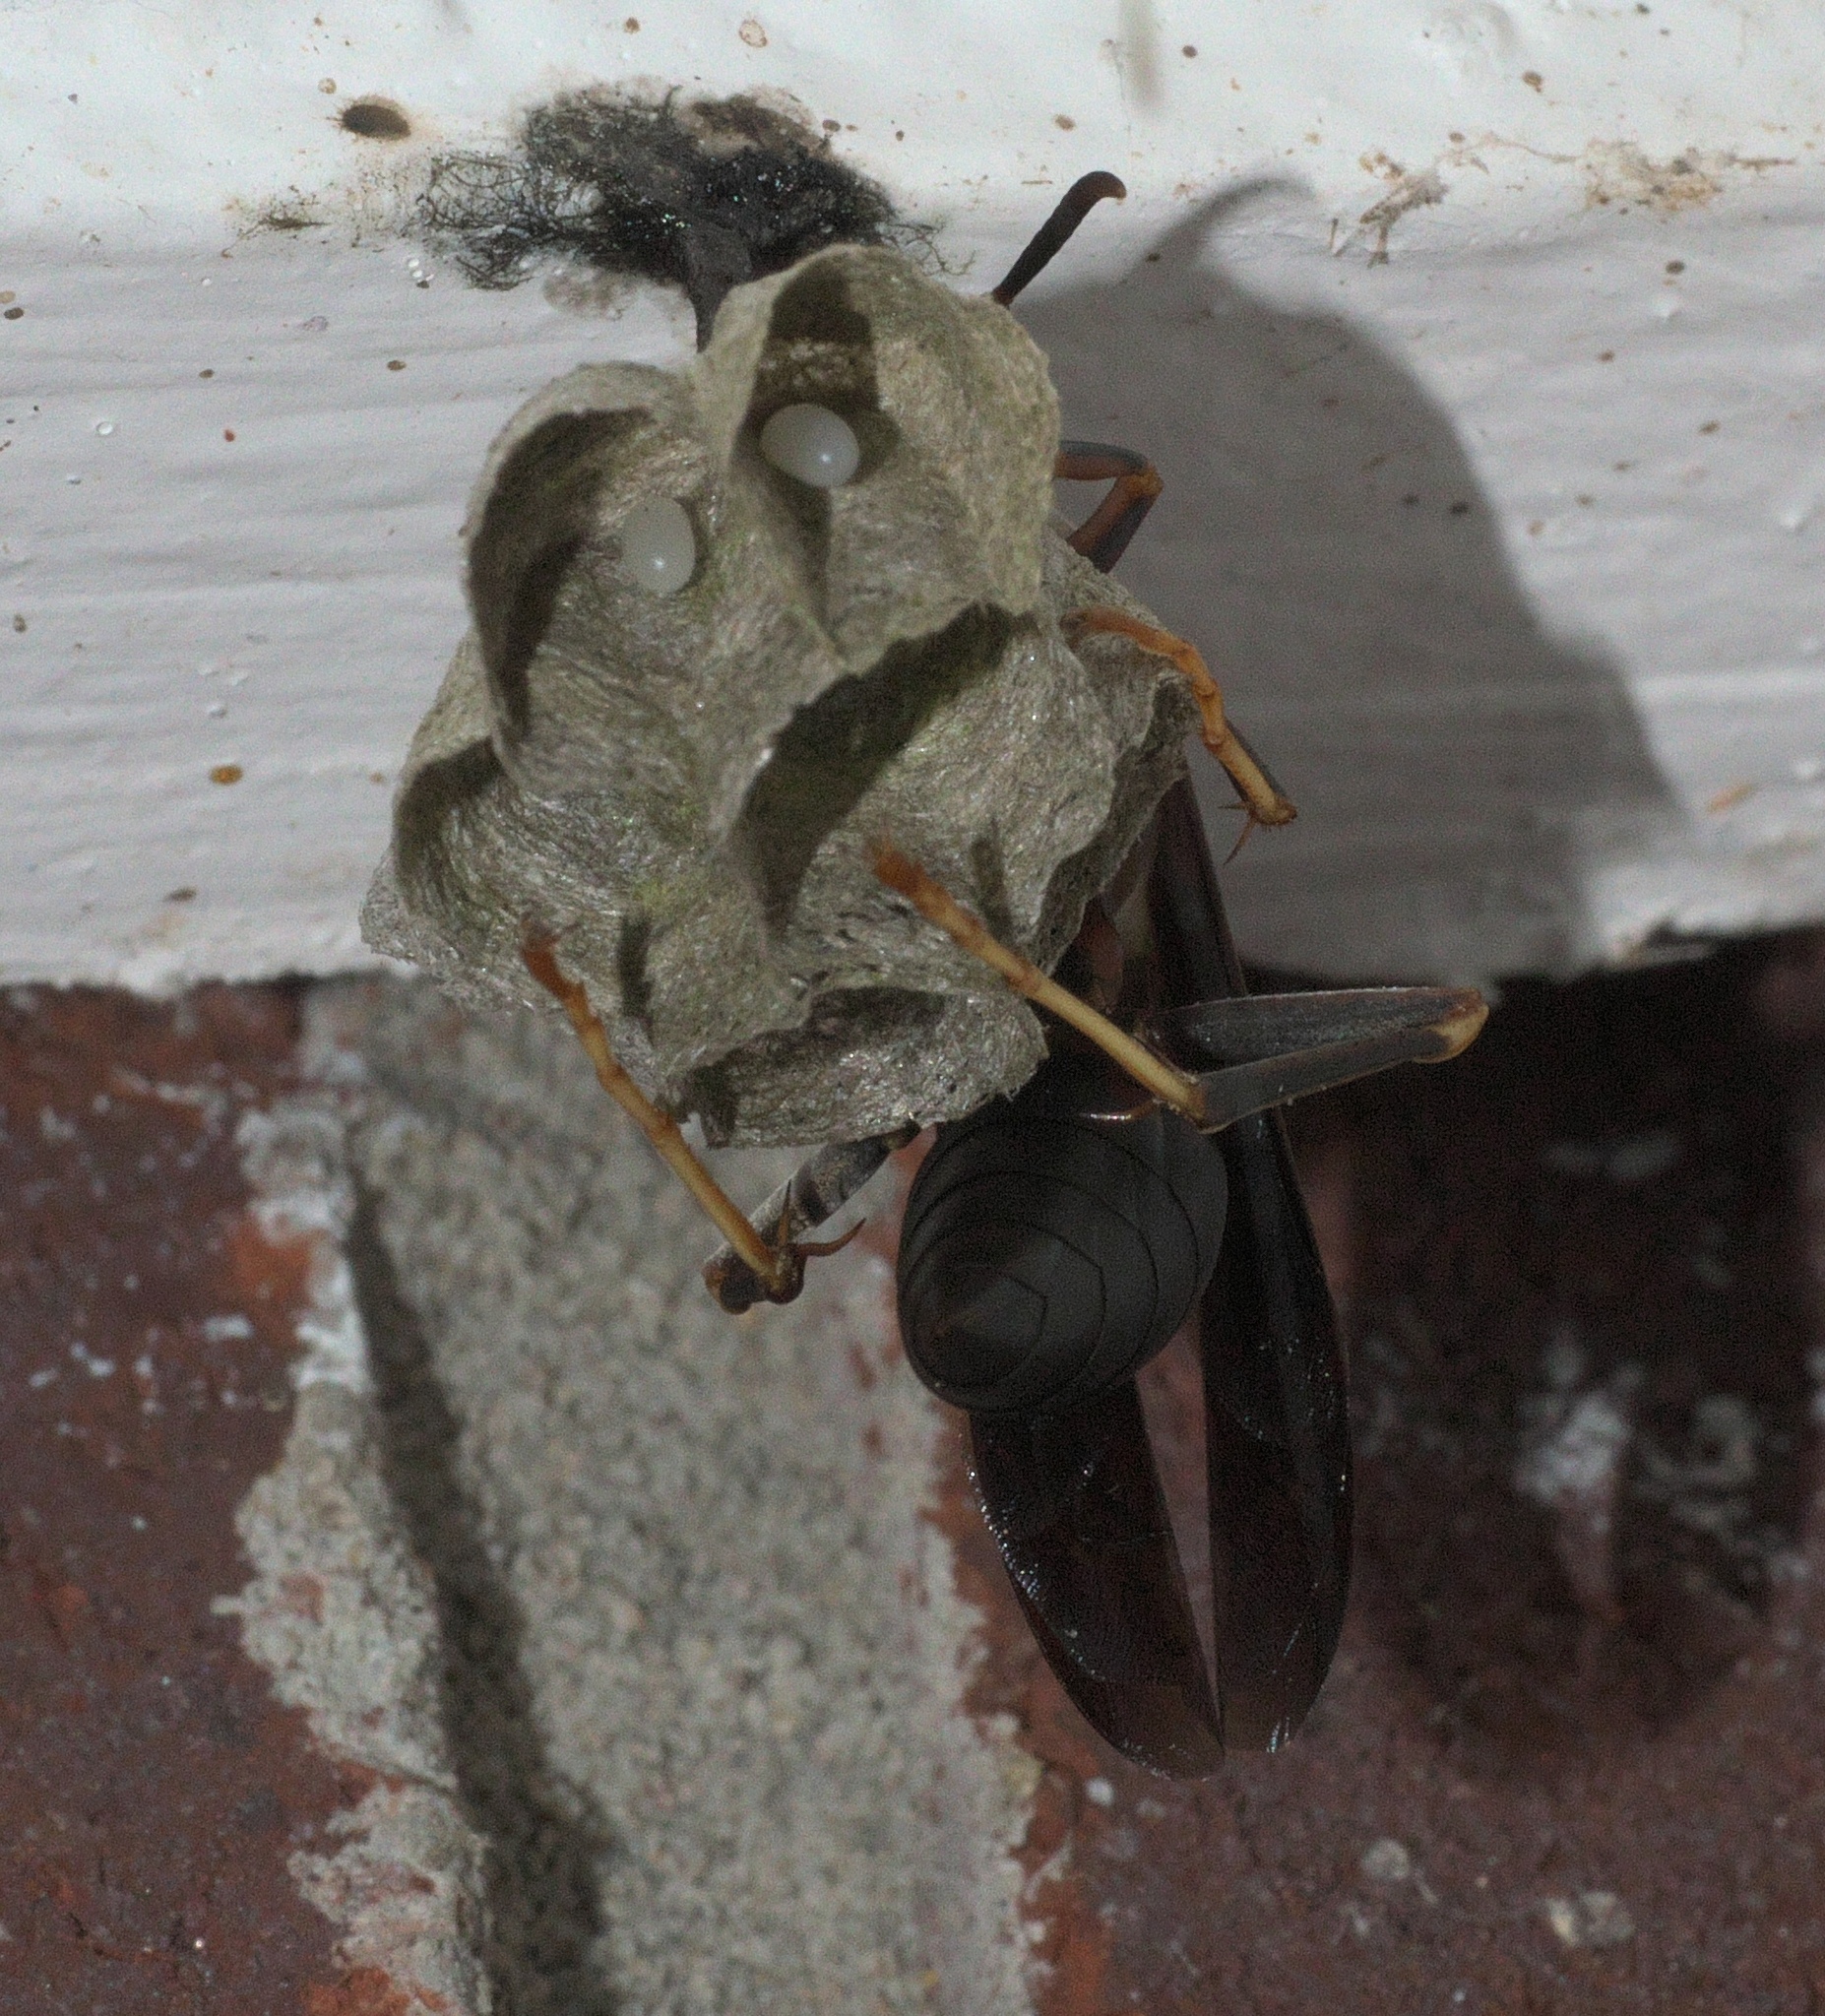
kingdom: Animalia
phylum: Arthropoda
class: Insecta
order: Hymenoptera
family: Eumenidae
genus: Polistes
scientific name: Polistes metricus
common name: Metric paper wasp
